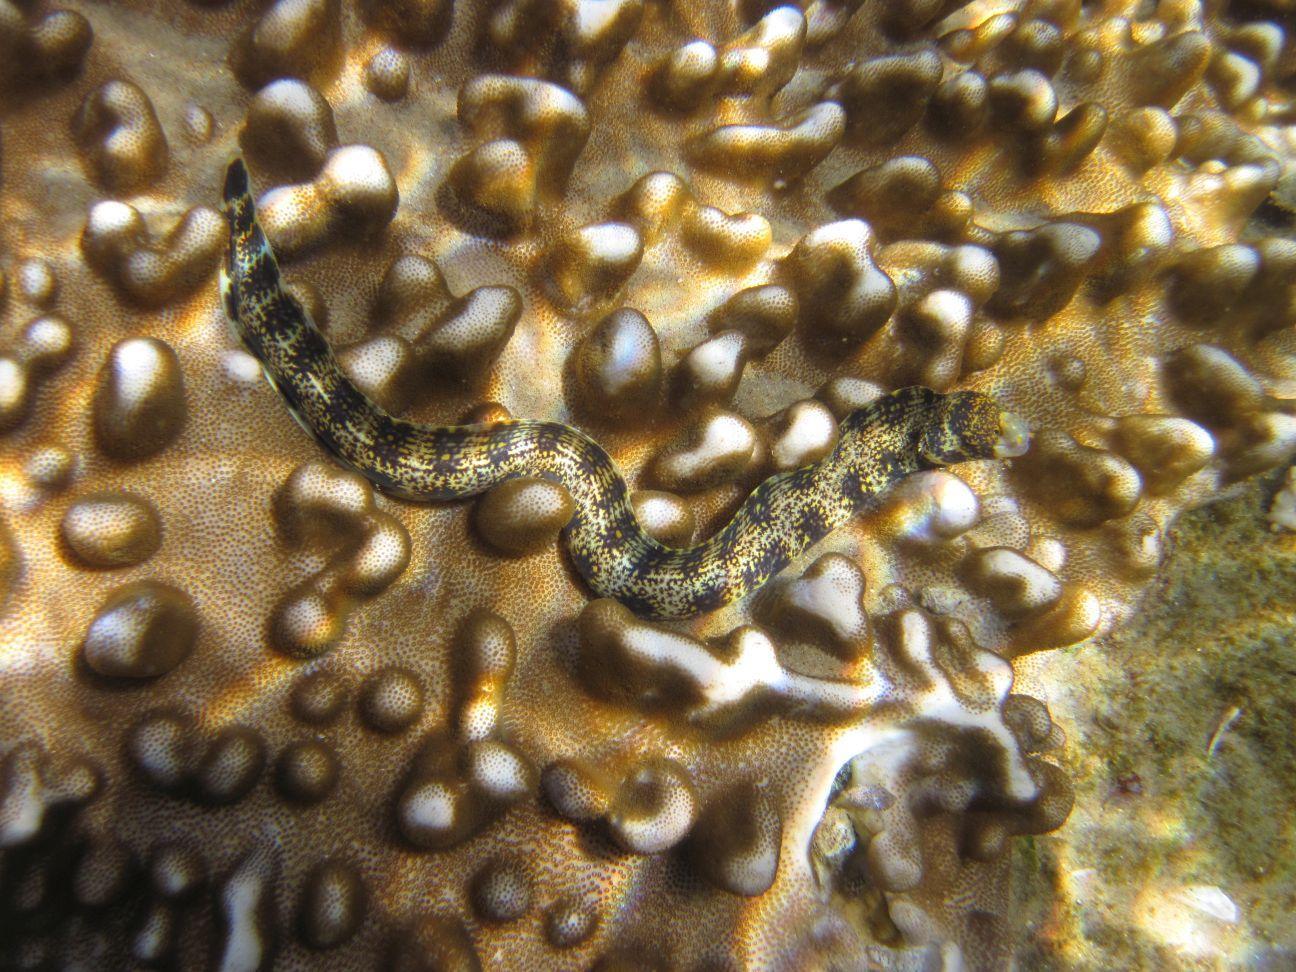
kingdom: Animalia
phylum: Chordata
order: Anguilliformes
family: Muraenidae
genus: Echidna
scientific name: Echidna nebulosa
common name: Snowflake moray
